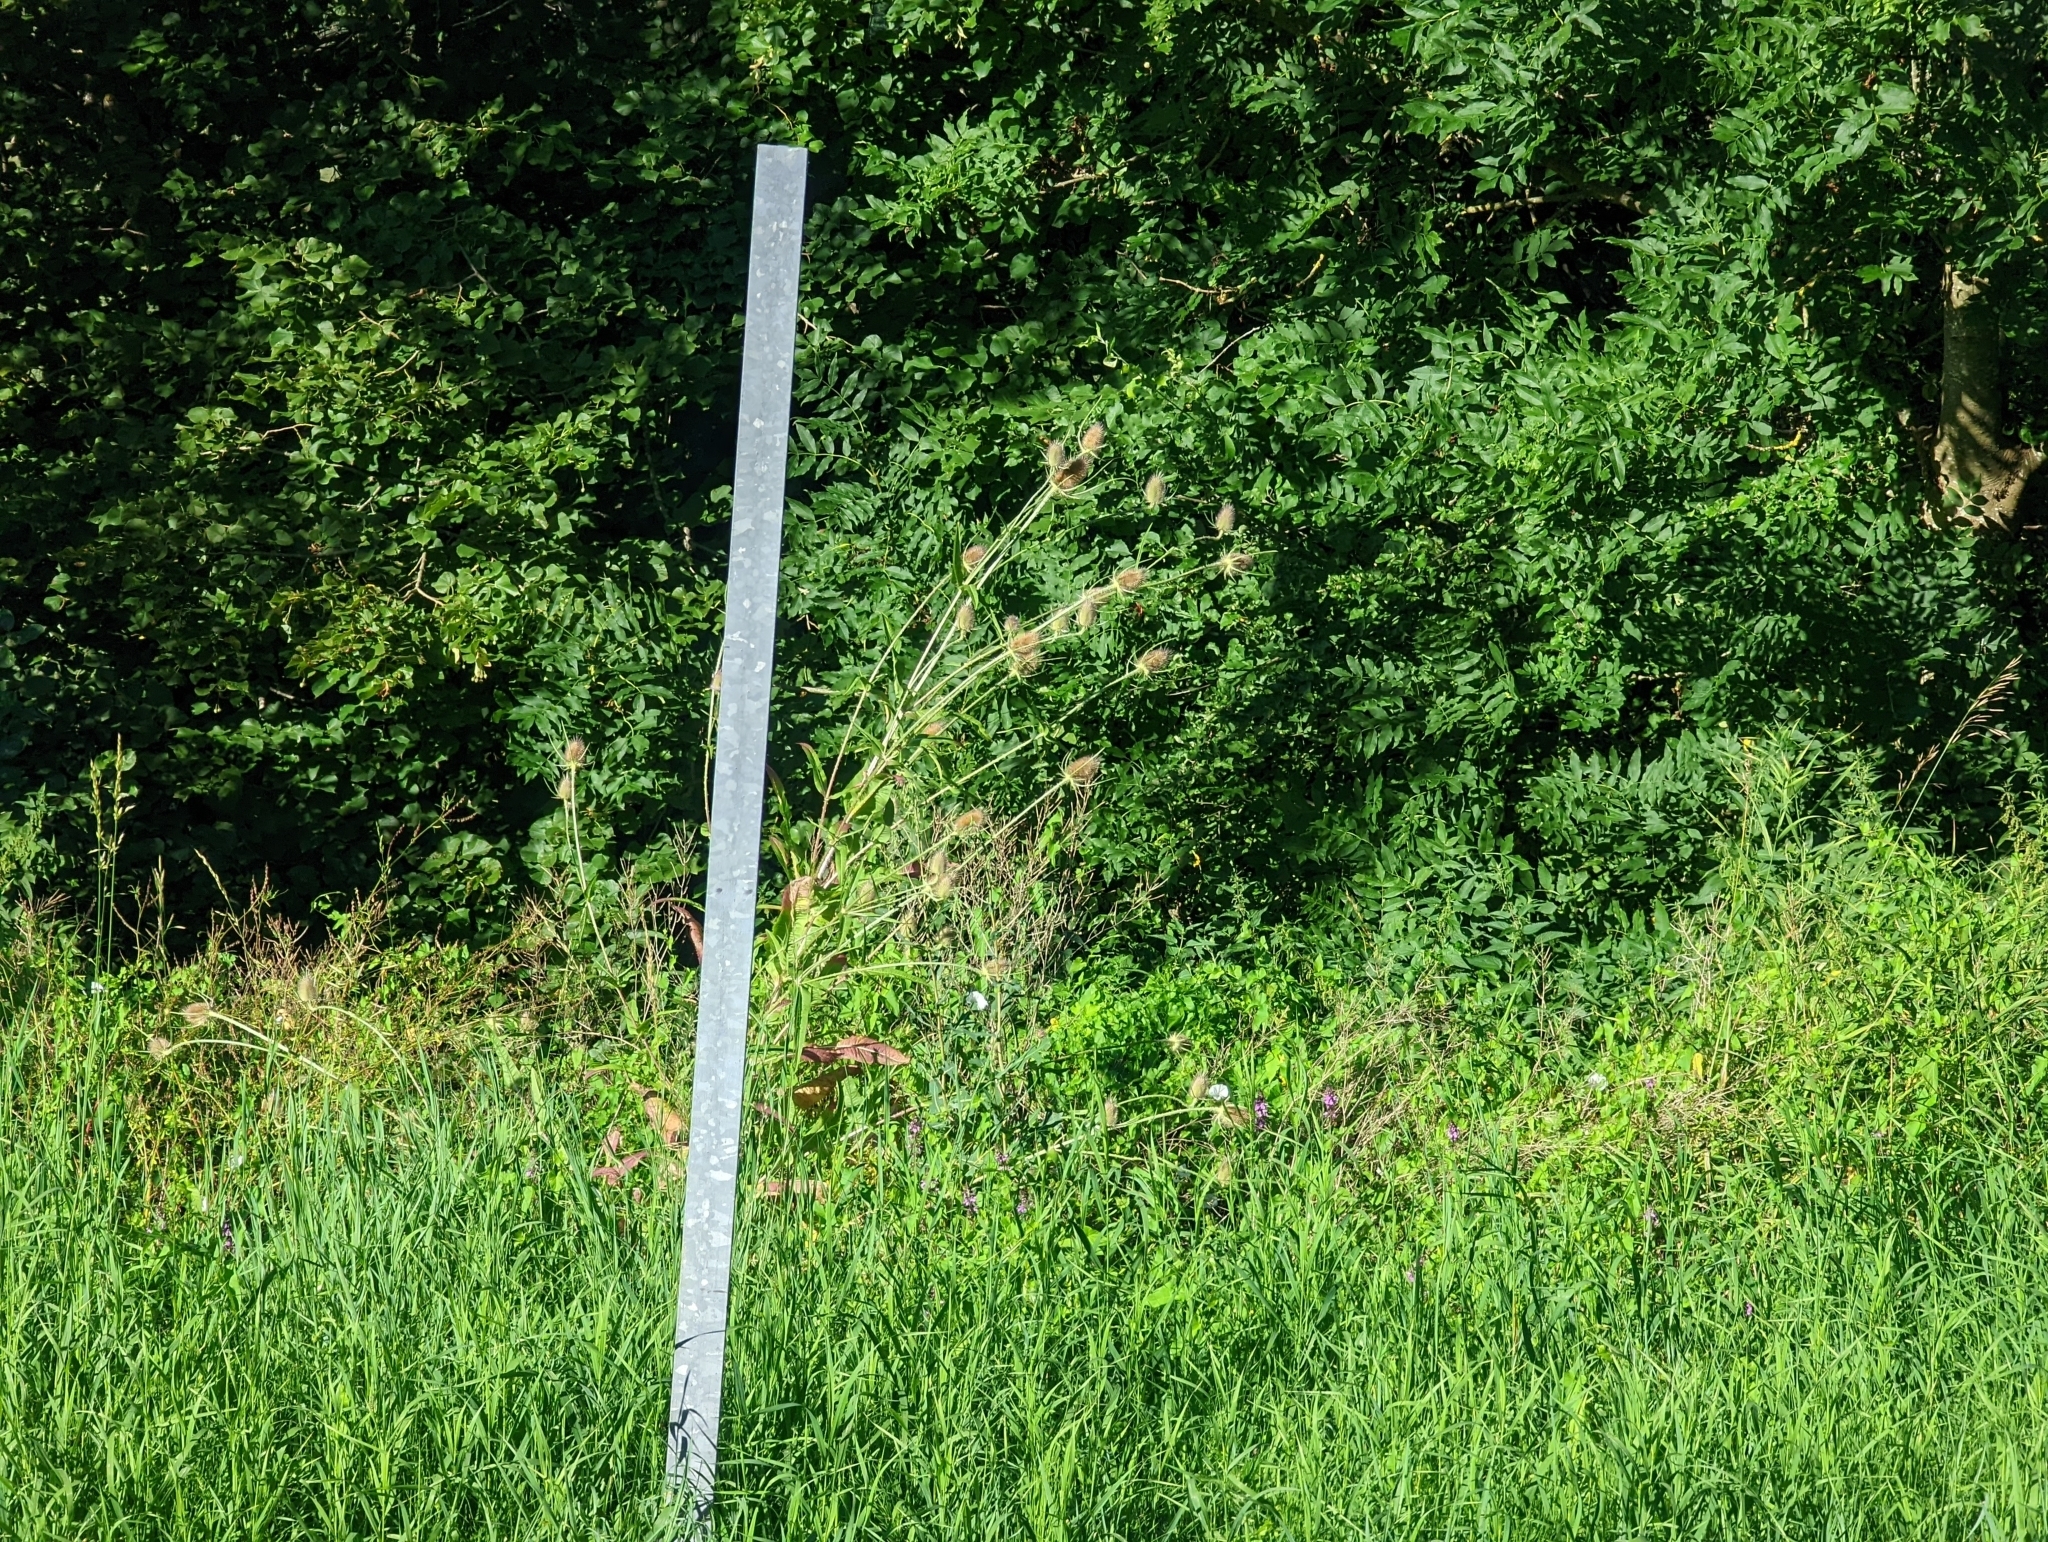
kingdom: Plantae
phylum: Tracheophyta
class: Magnoliopsida
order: Dipsacales
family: Caprifoliaceae
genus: Dipsacus
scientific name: Dipsacus fullonum
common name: Teasel
